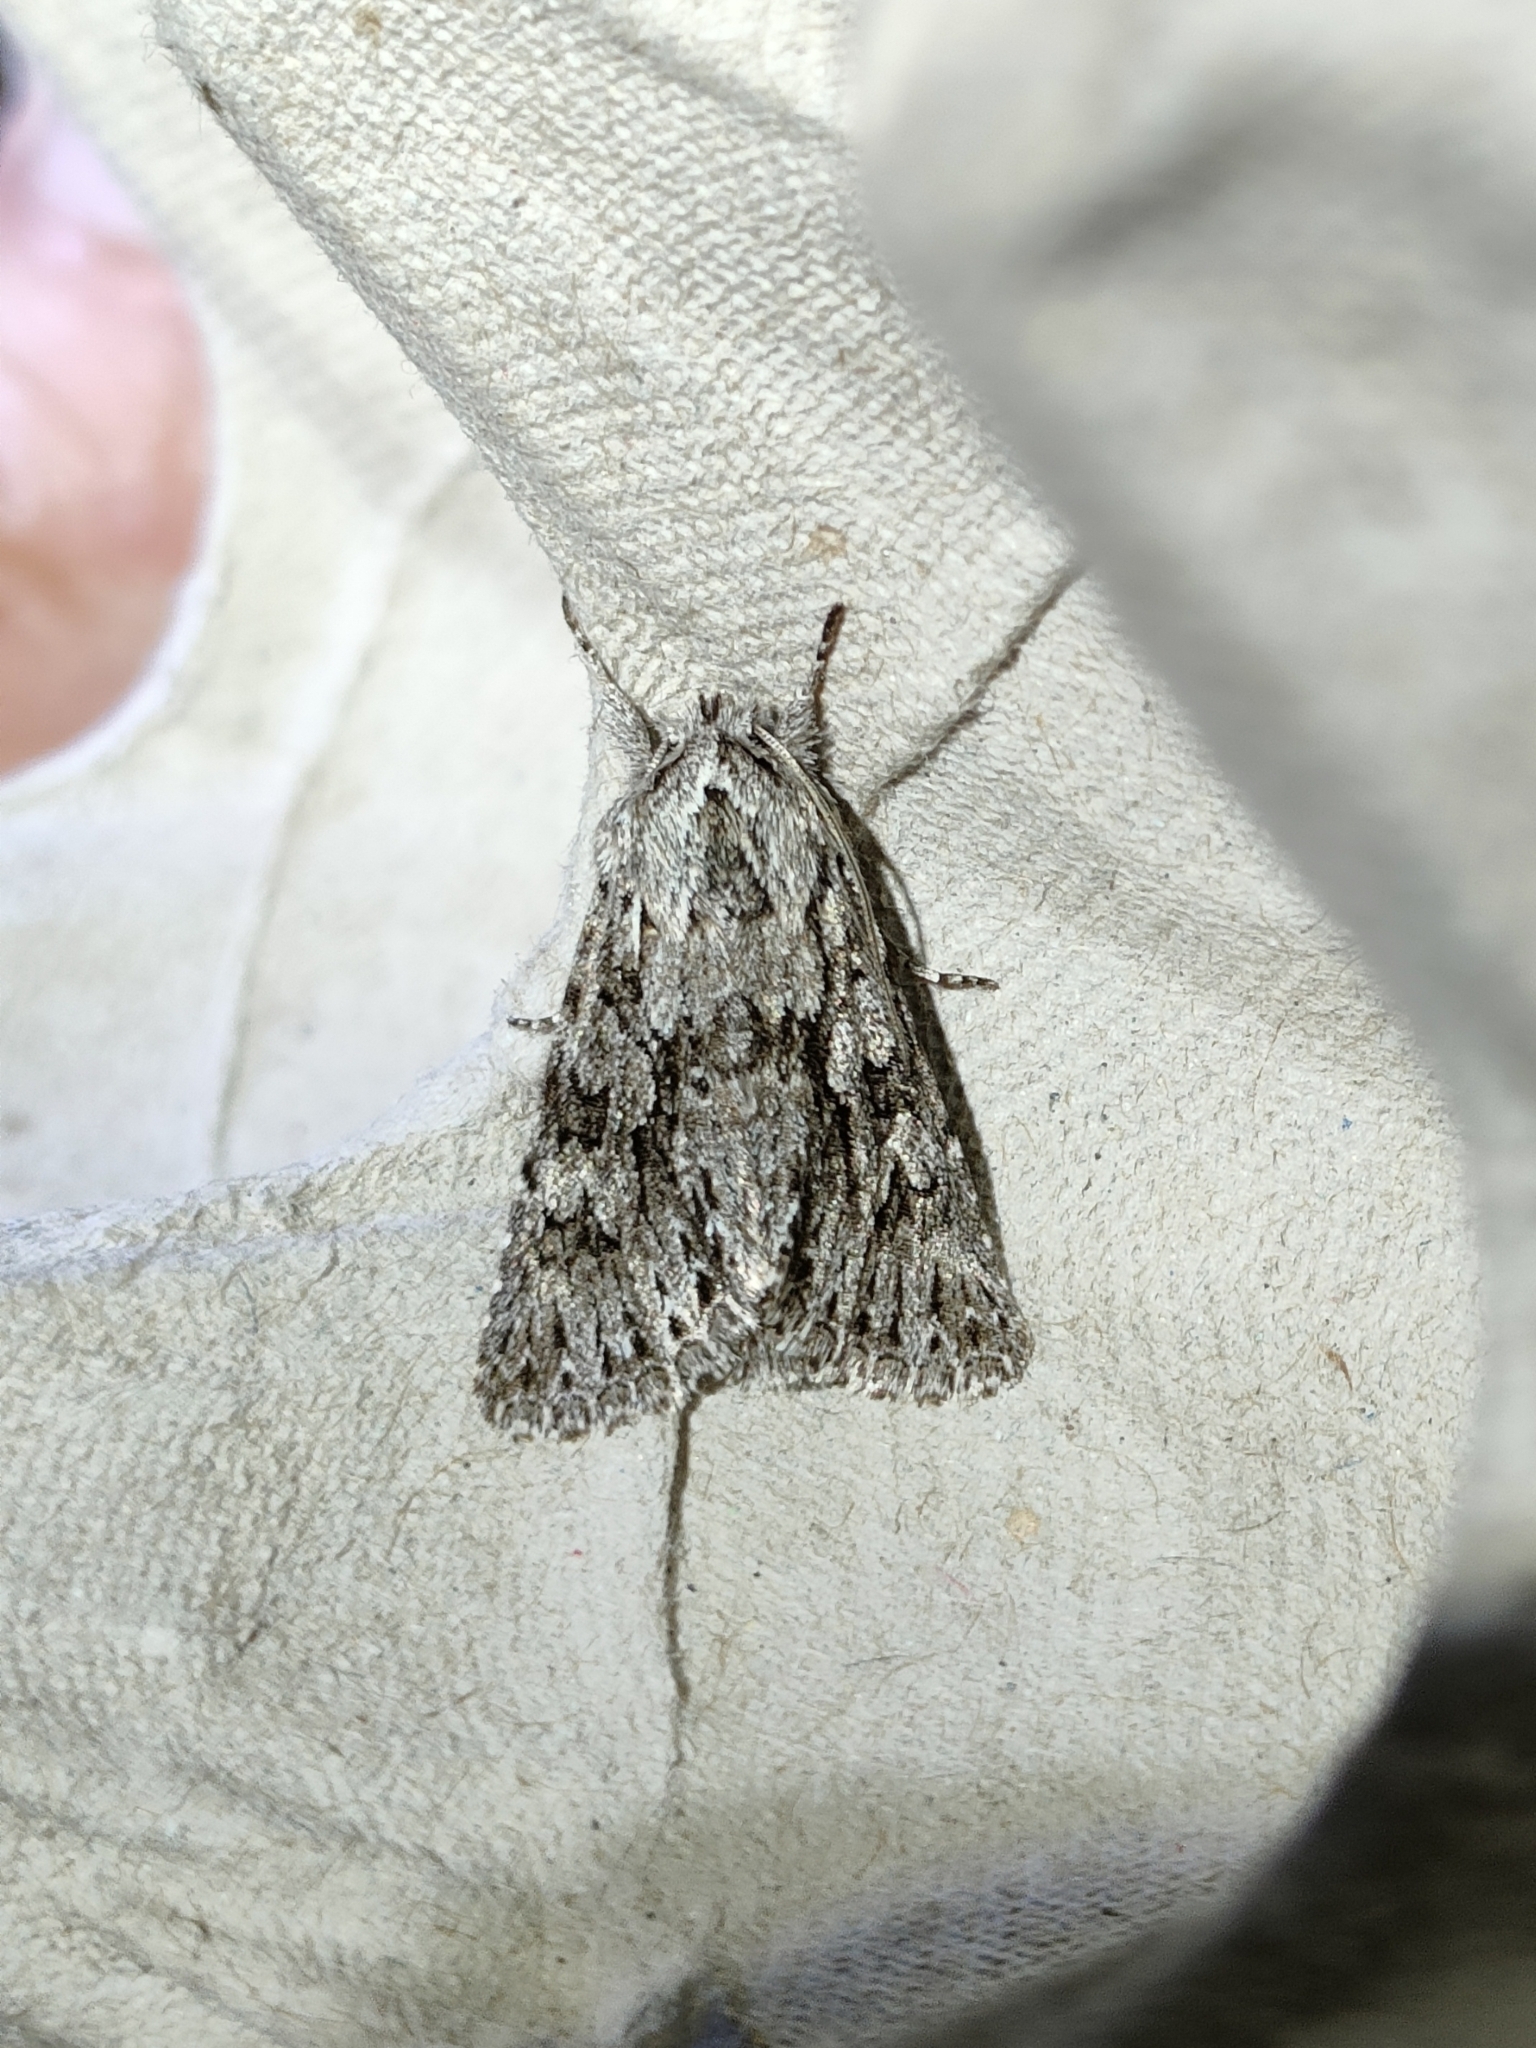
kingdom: Animalia
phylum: Arthropoda
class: Insecta
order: Lepidoptera
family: Noctuidae
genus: Xylocampa
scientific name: Xylocampa areola
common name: Early grey
